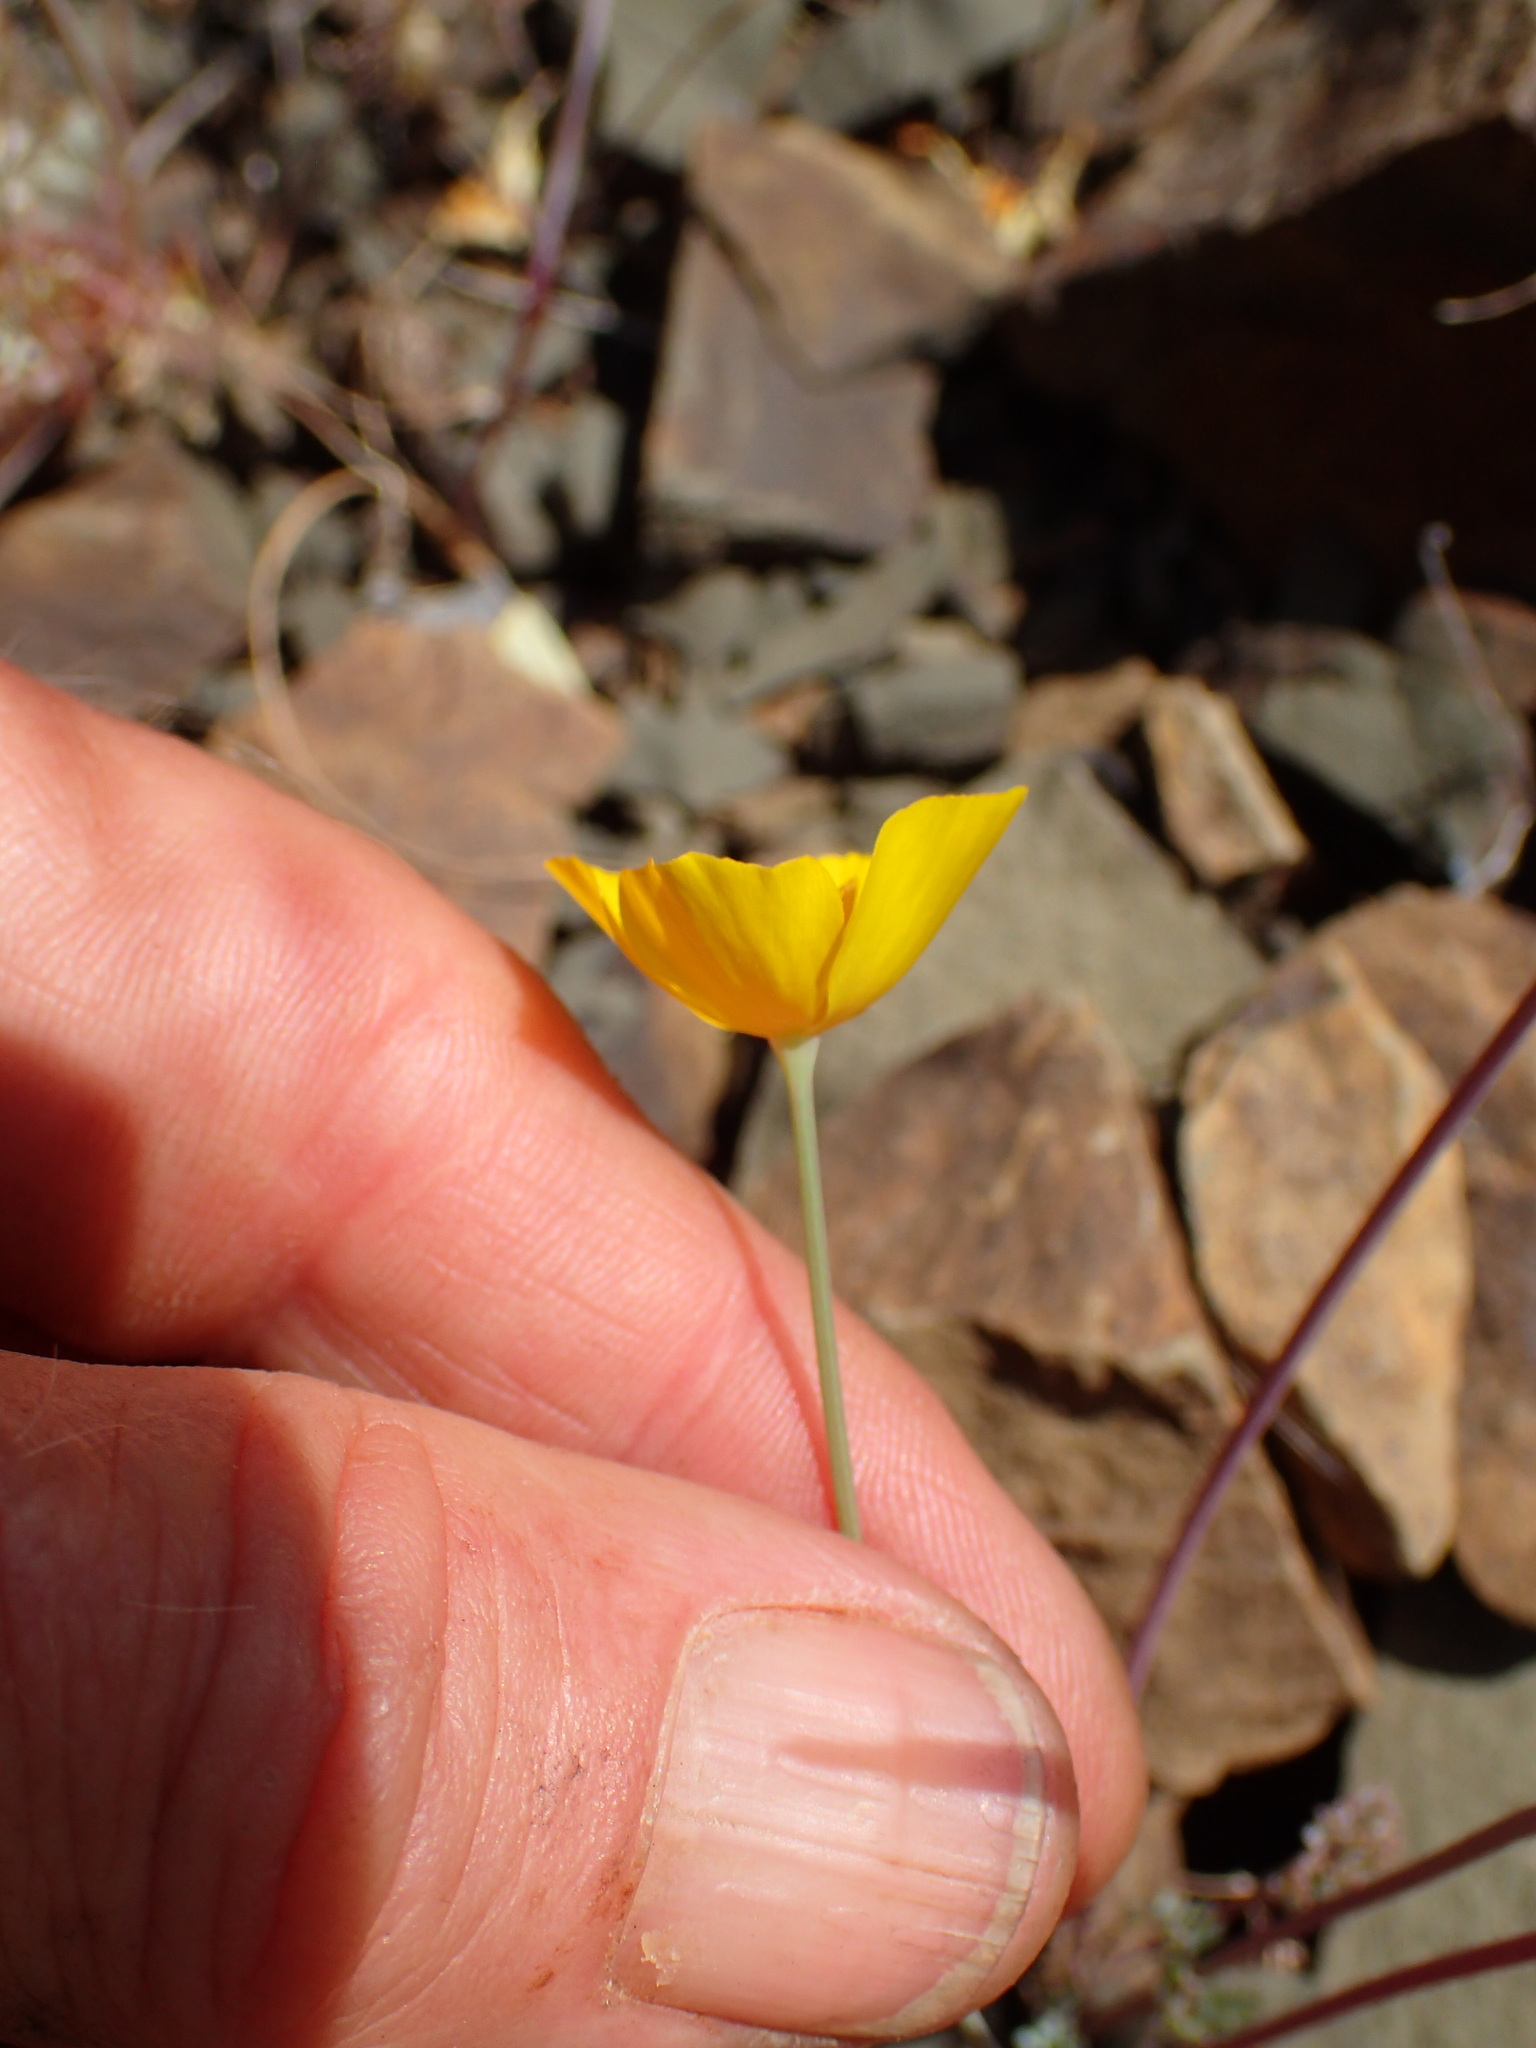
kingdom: Plantae
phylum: Tracheophyta
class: Magnoliopsida
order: Ranunculales
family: Papaveraceae
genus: Eschscholzia
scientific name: Eschscholzia caespitosa
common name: Tufted california-poppy
